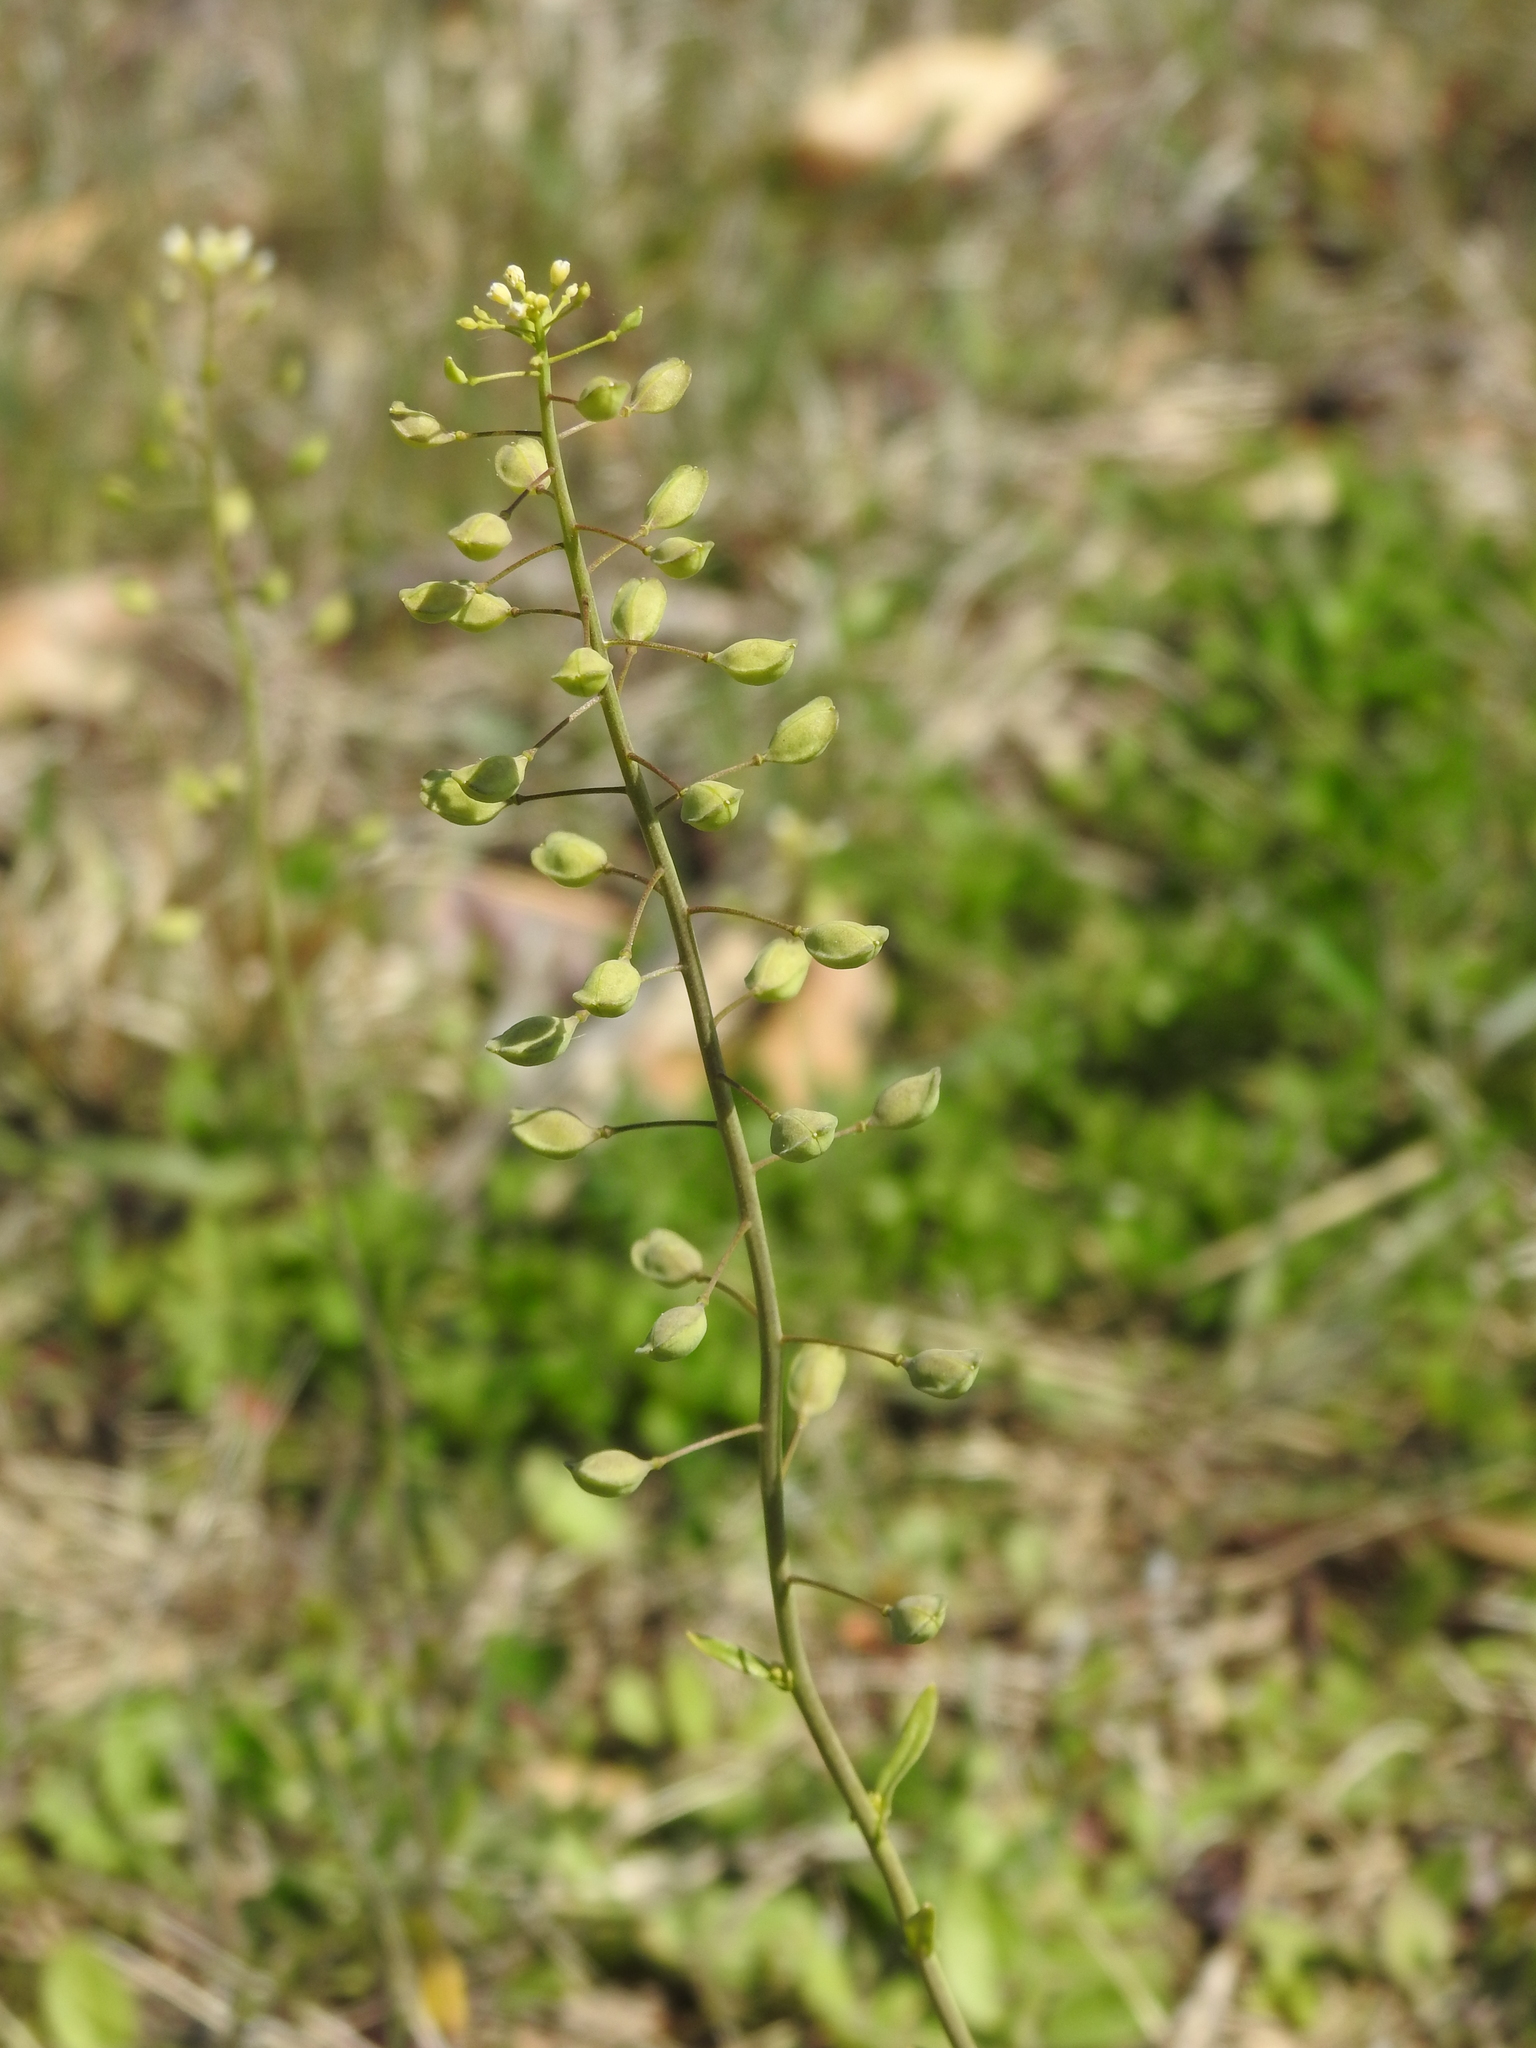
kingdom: Plantae
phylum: Tracheophyta
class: Magnoliopsida
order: Brassicales
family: Brassicaceae
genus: Mummenhoffia
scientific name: Mummenhoffia alliacea
